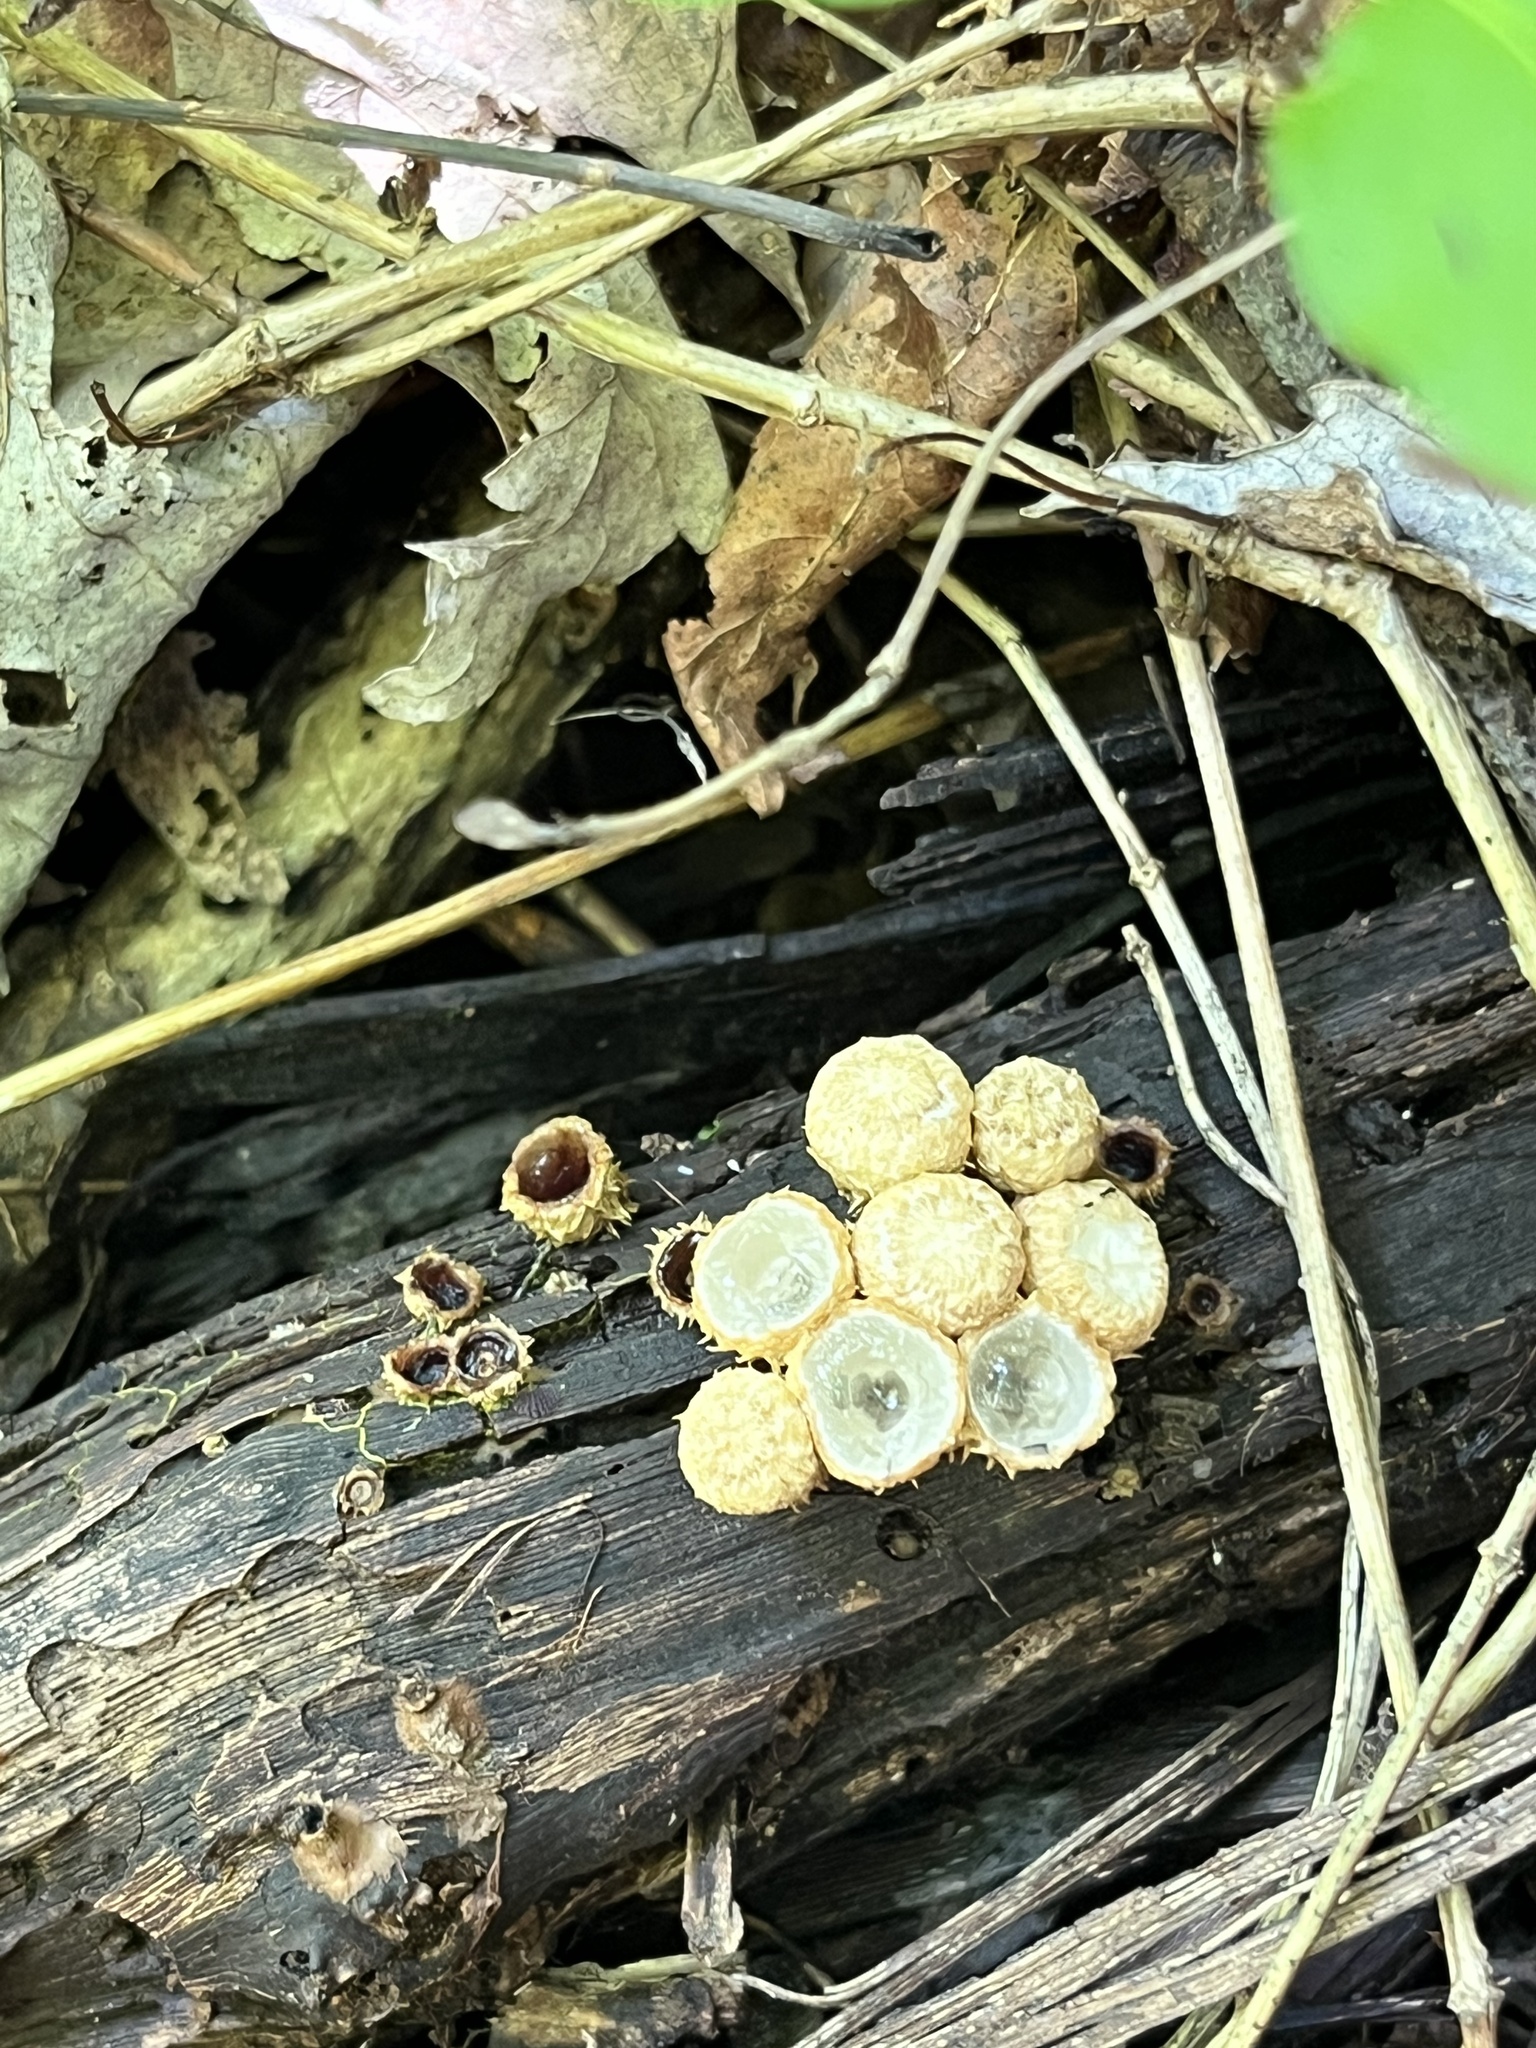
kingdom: Fungi
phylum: Basidiomycota
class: Agaricomycetes
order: Agaricales
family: Agaricaceae
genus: Cyathus
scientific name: Cyathus stercoreus
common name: Dung bird's nest
